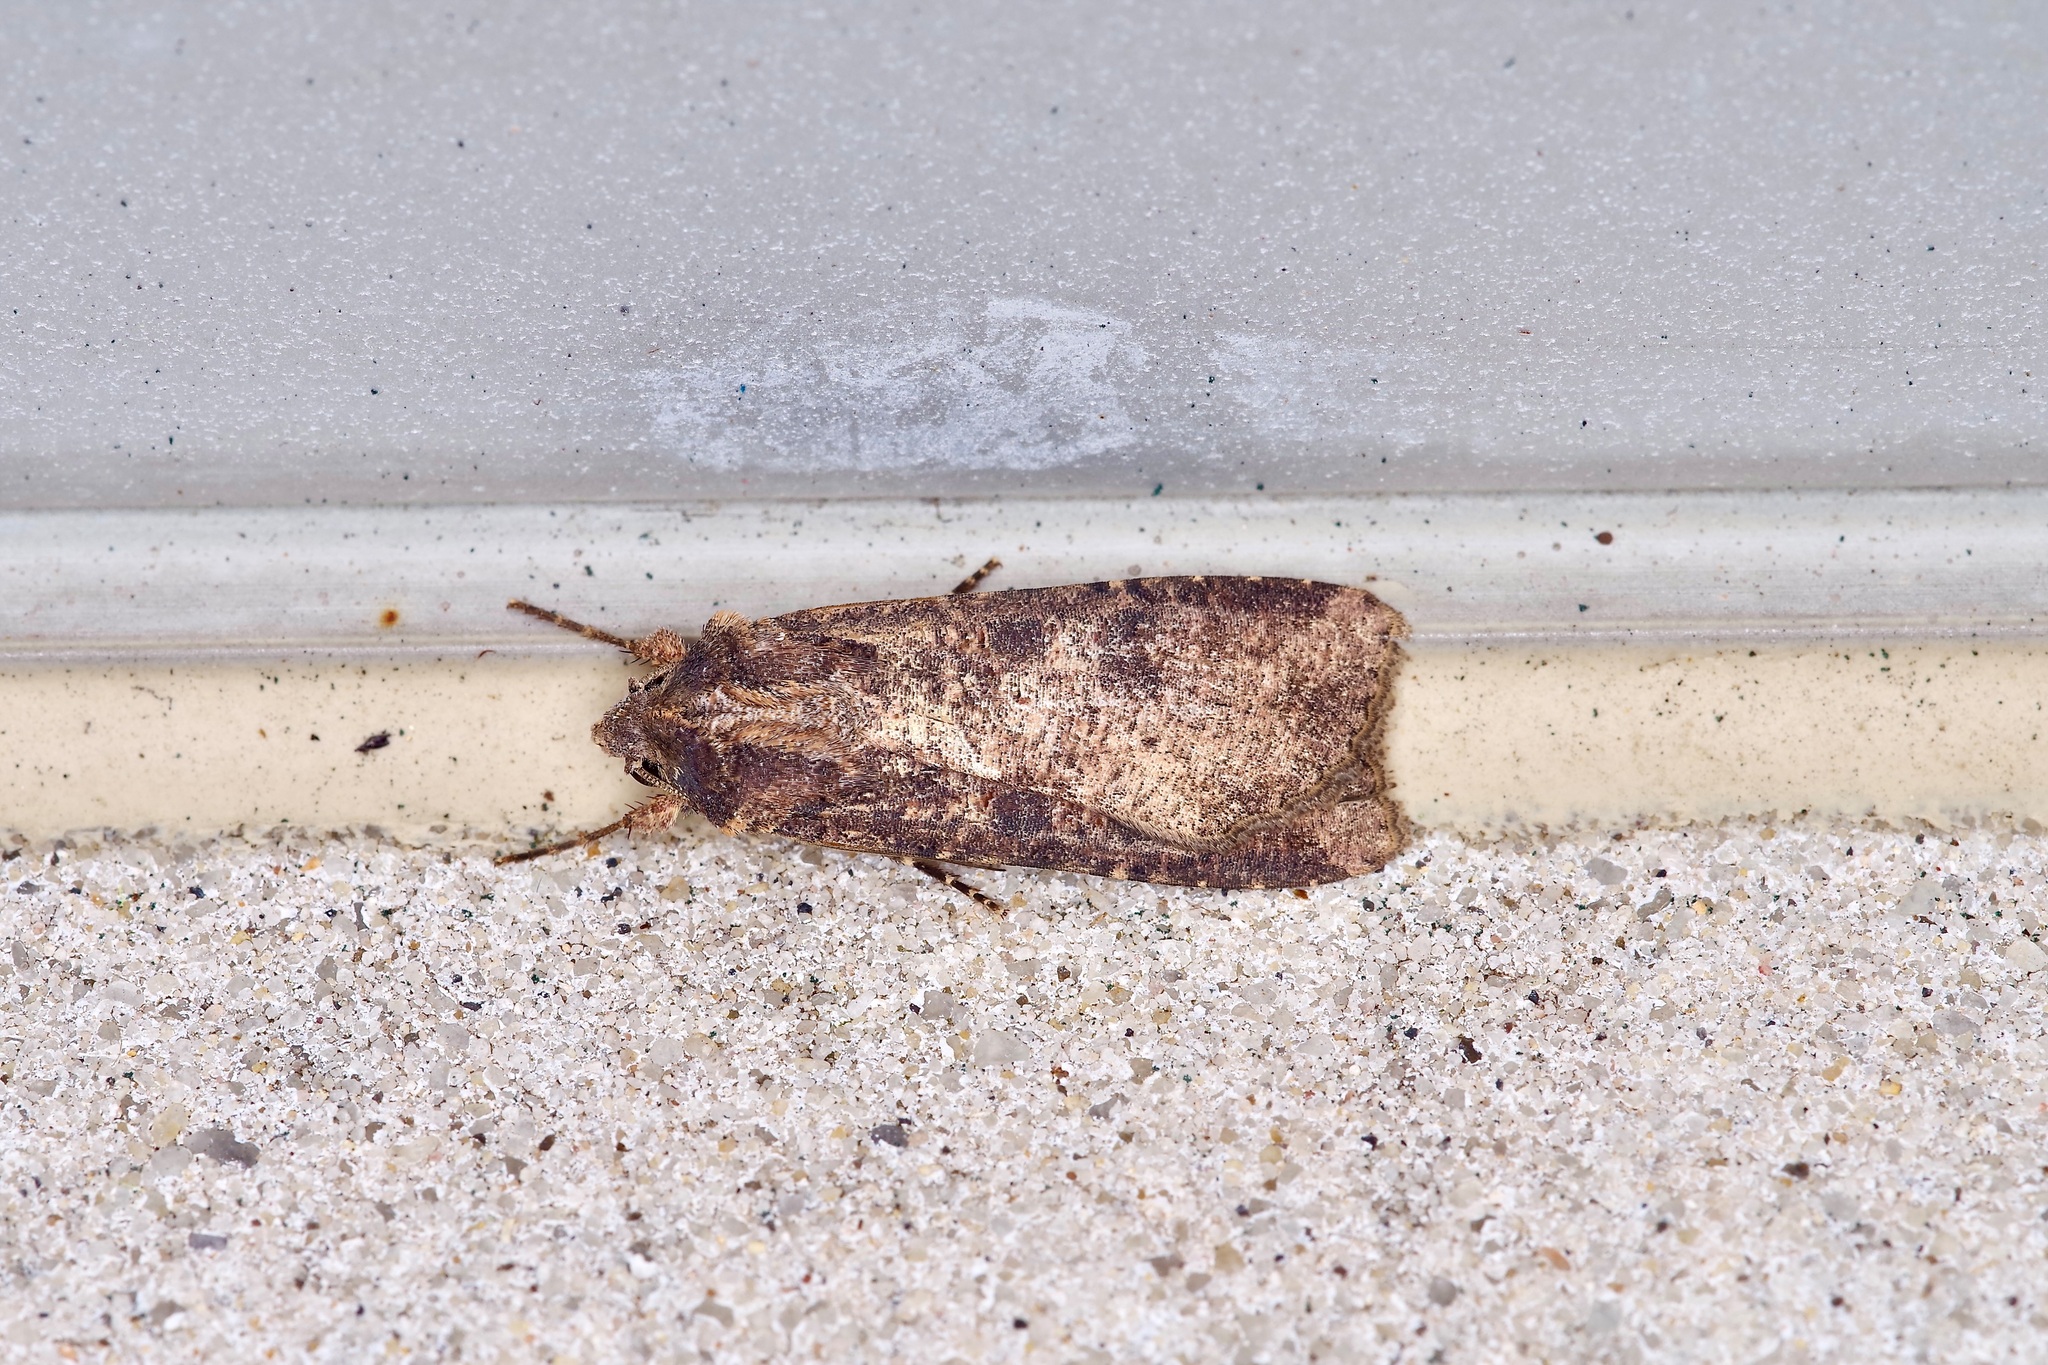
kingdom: Animalia
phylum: Arthropoda
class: Insecta
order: Lepidoptera
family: Noctuidae
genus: Peridroma
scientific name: Peridroma saucia
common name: Pearly underwing
